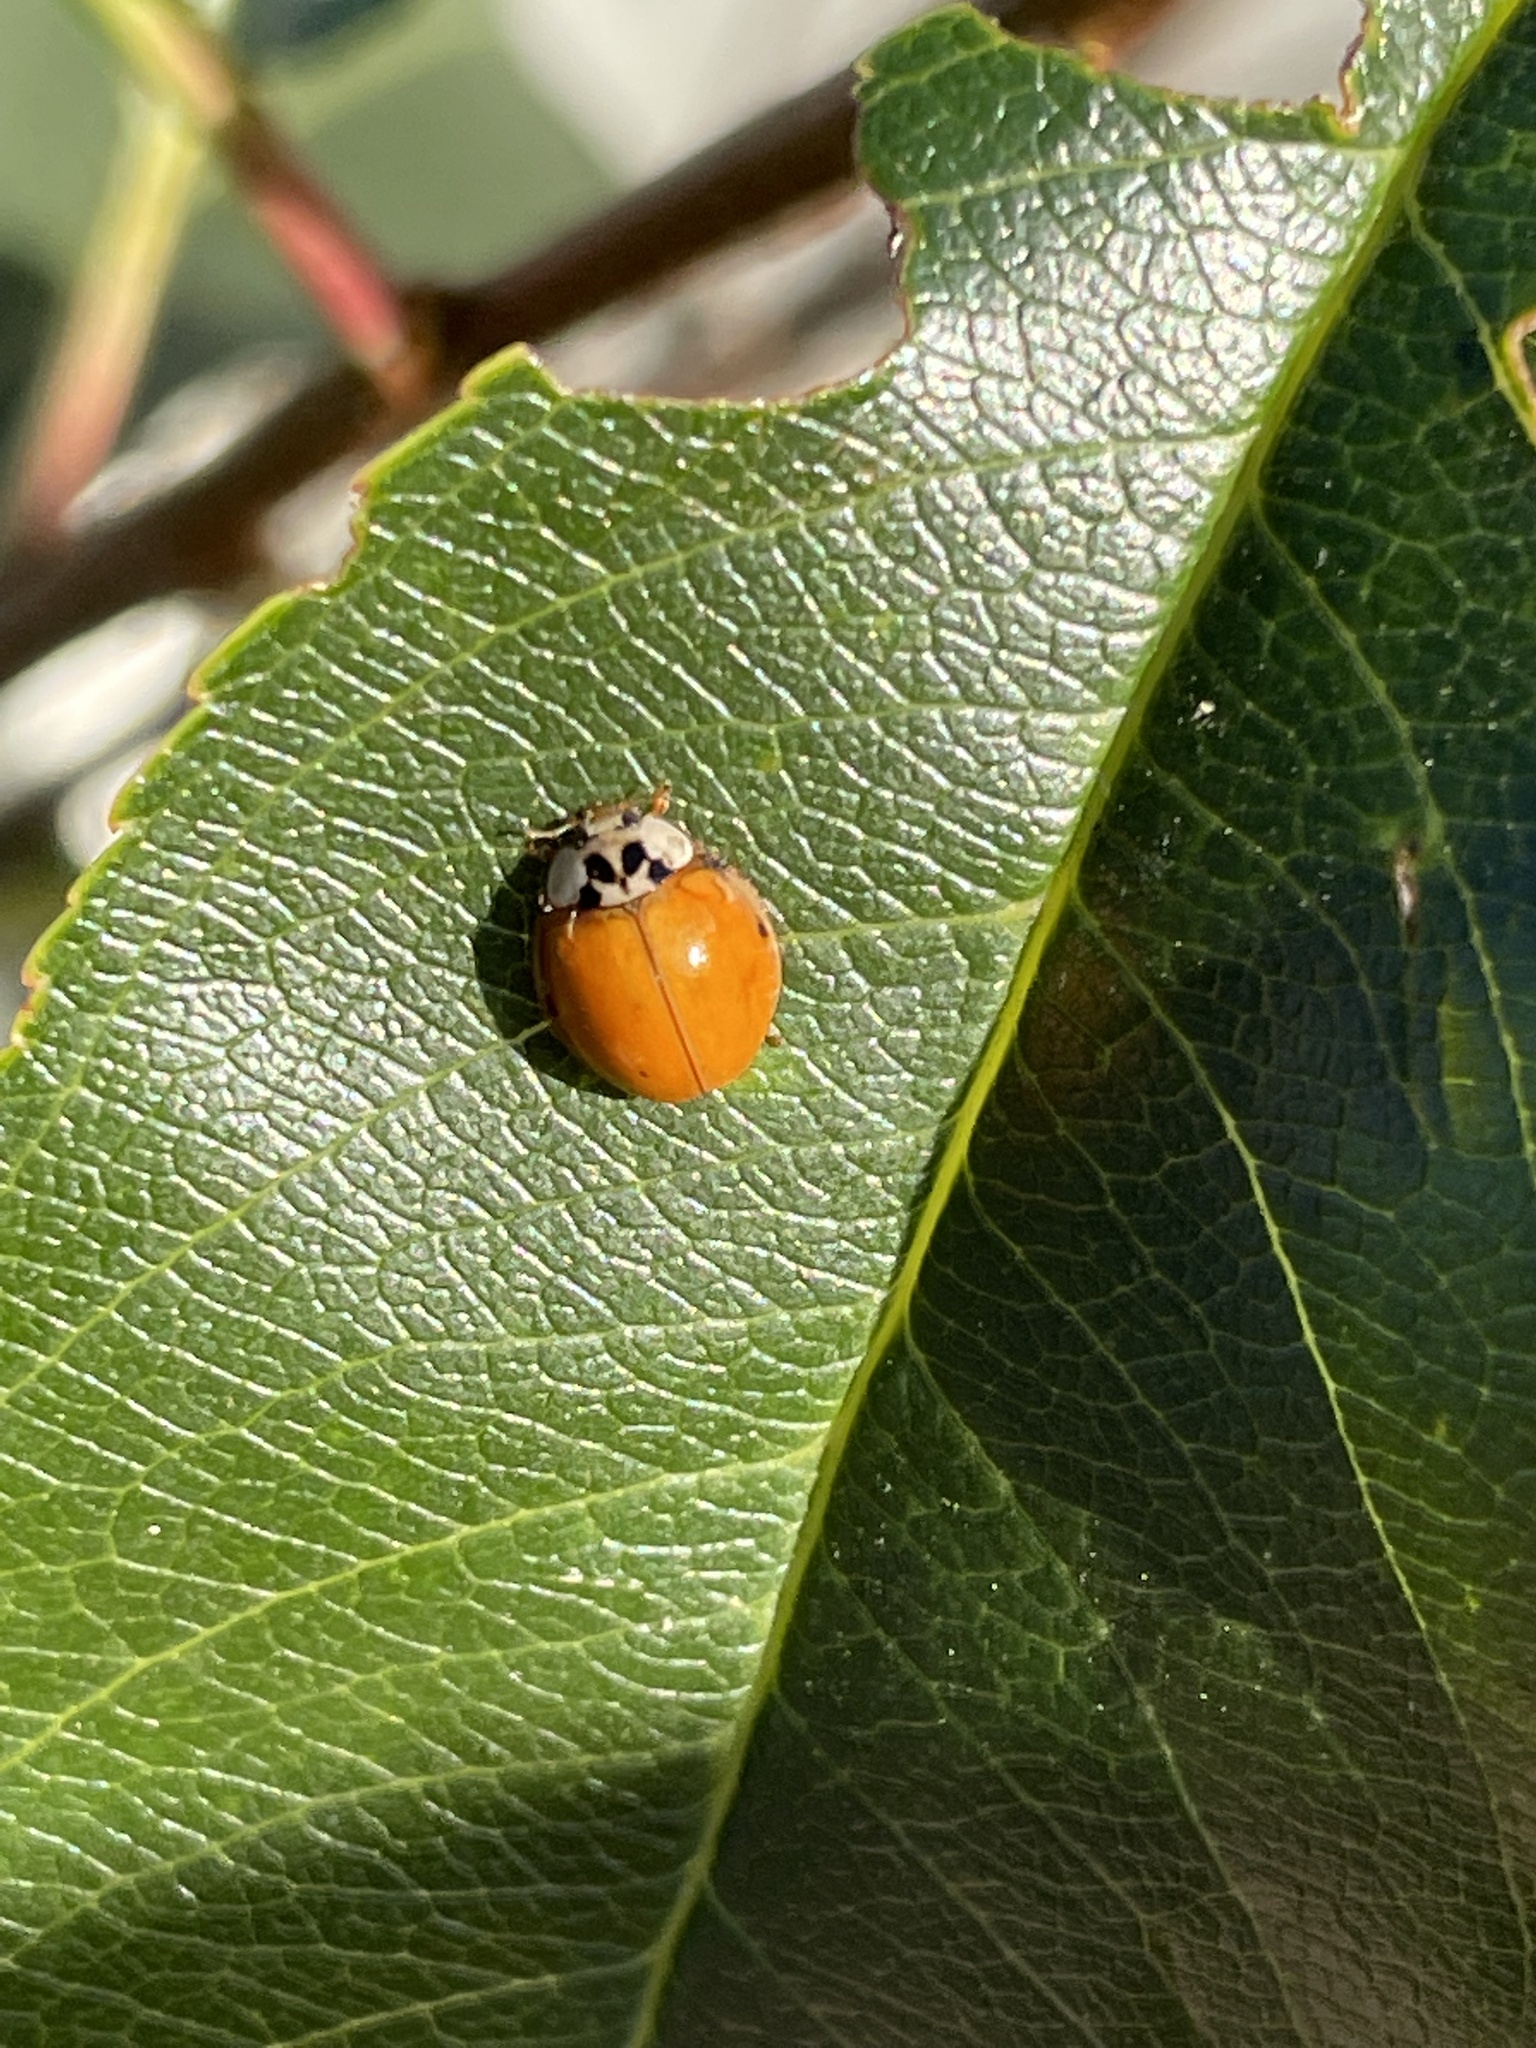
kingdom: Animalia
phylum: Arthropoda
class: Insecta
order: Coleoptera
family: Coccinellidae
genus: Harmonia
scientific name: Harmonia axyridis
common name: Harlequin ladybird
